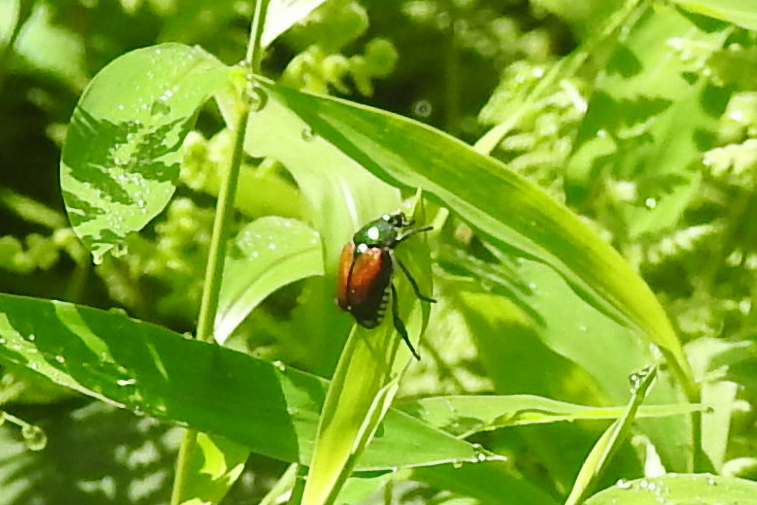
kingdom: Animalia
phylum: Arthropoda
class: Insecta
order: Coleoptera
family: Scarabaeidae
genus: Popillia
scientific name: Popillia japonica
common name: Japanese beetle
